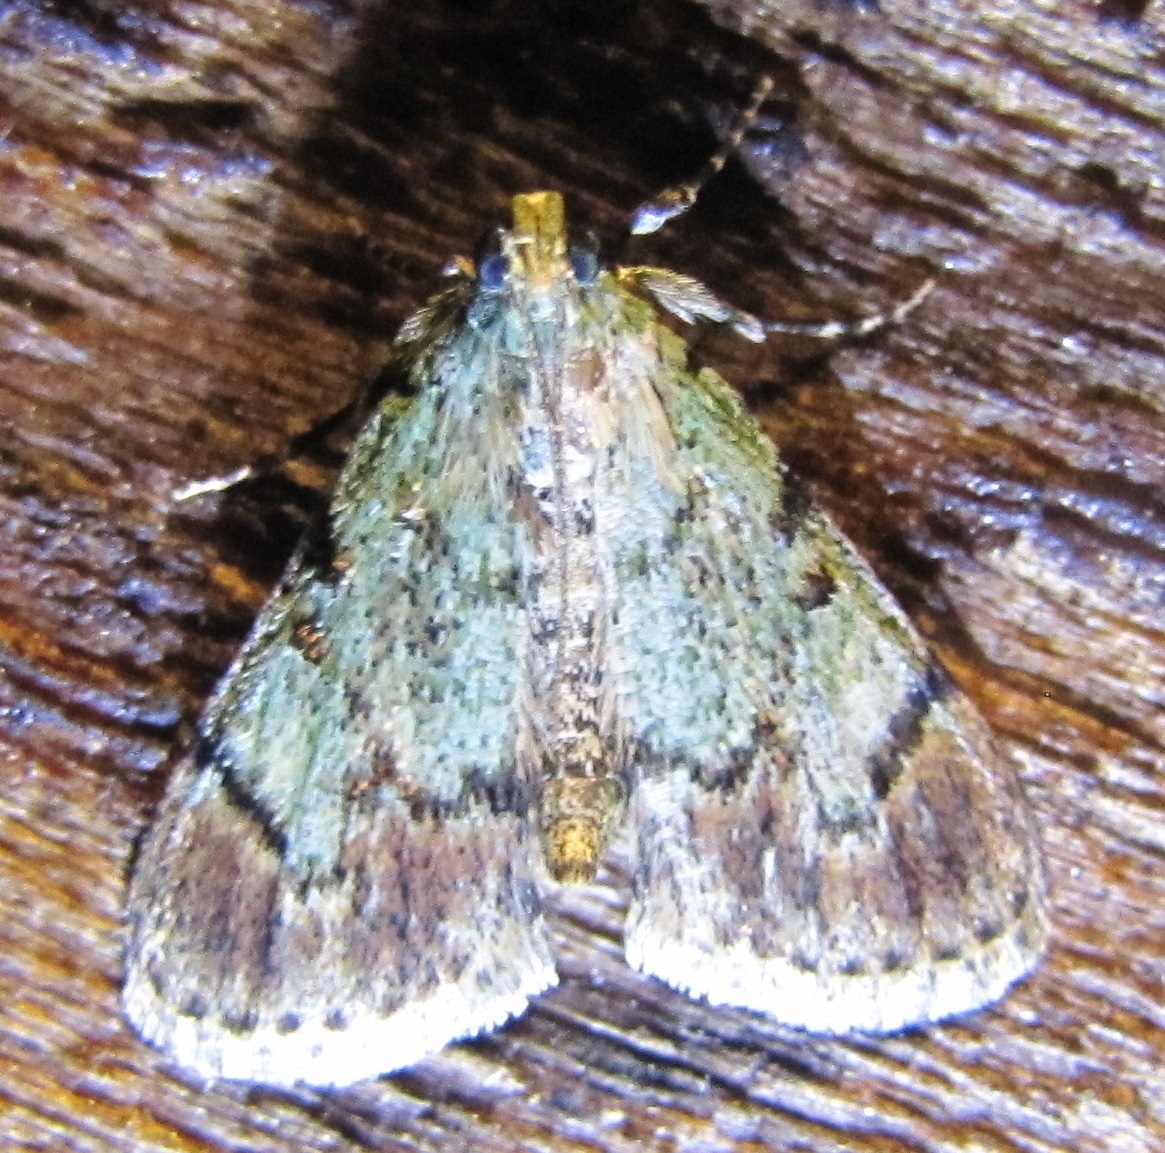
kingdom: Animalia
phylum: Arthropoda
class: Insecta
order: Lepidoptera
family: Pyralidae
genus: Epipaschia
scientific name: Epipaschia superatalis
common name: Dimorphic macalla moth
